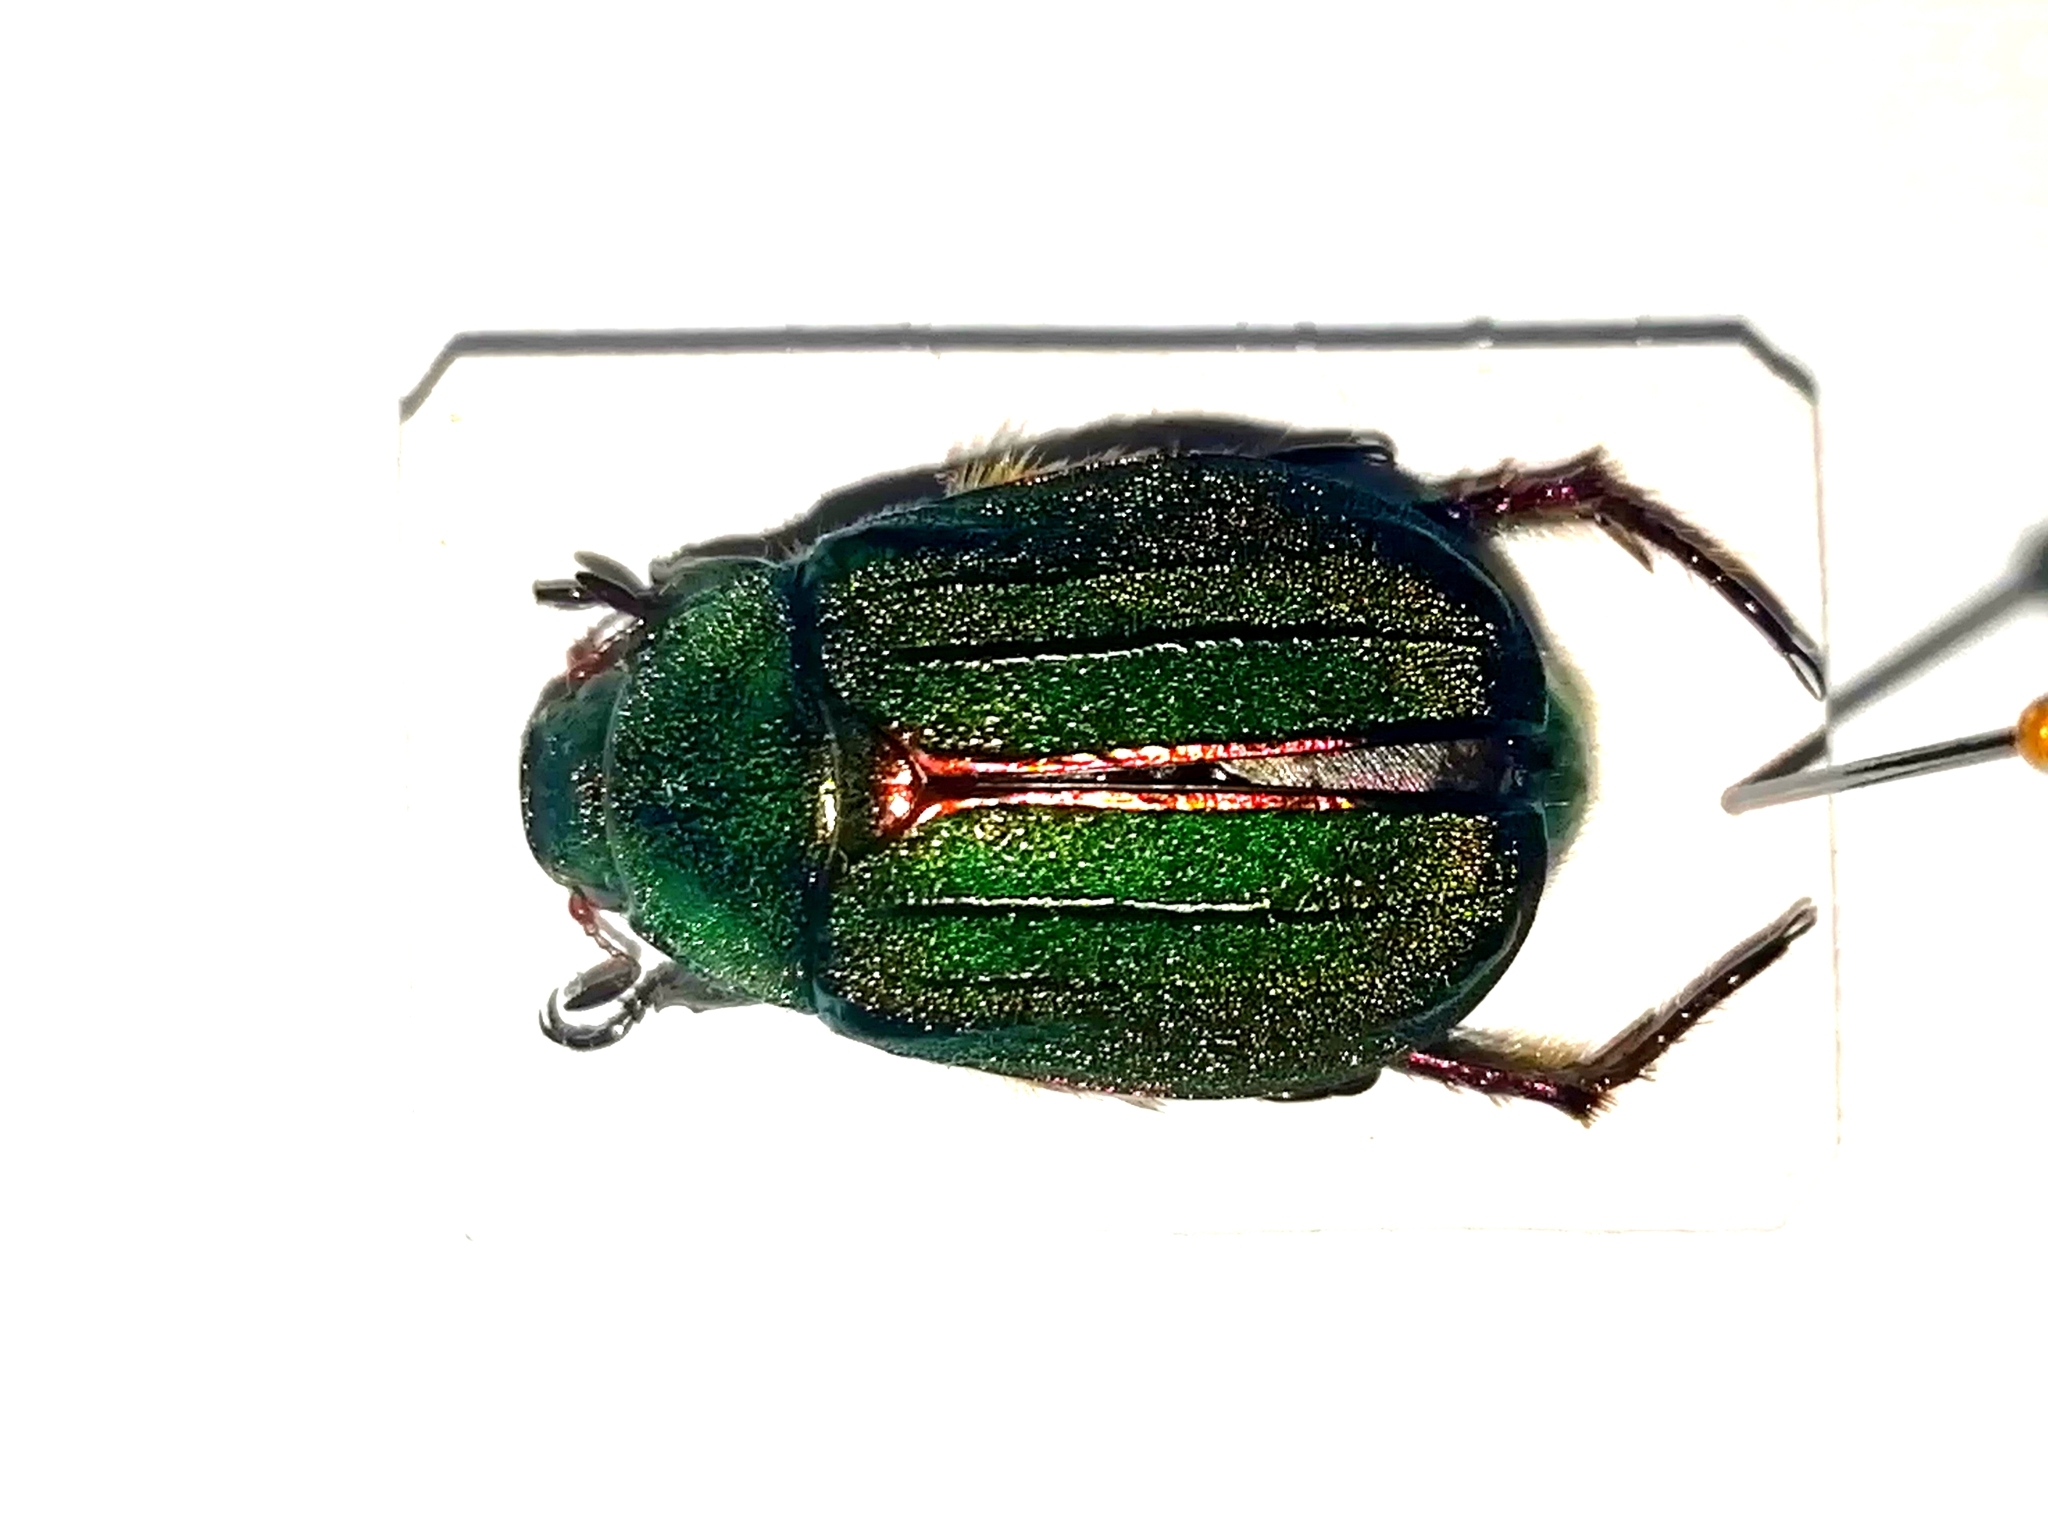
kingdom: Animalia
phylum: Arthropoda
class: Insecta
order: Coleoptera
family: Scarabaeidae
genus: Mimela
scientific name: Mimela holosericea
